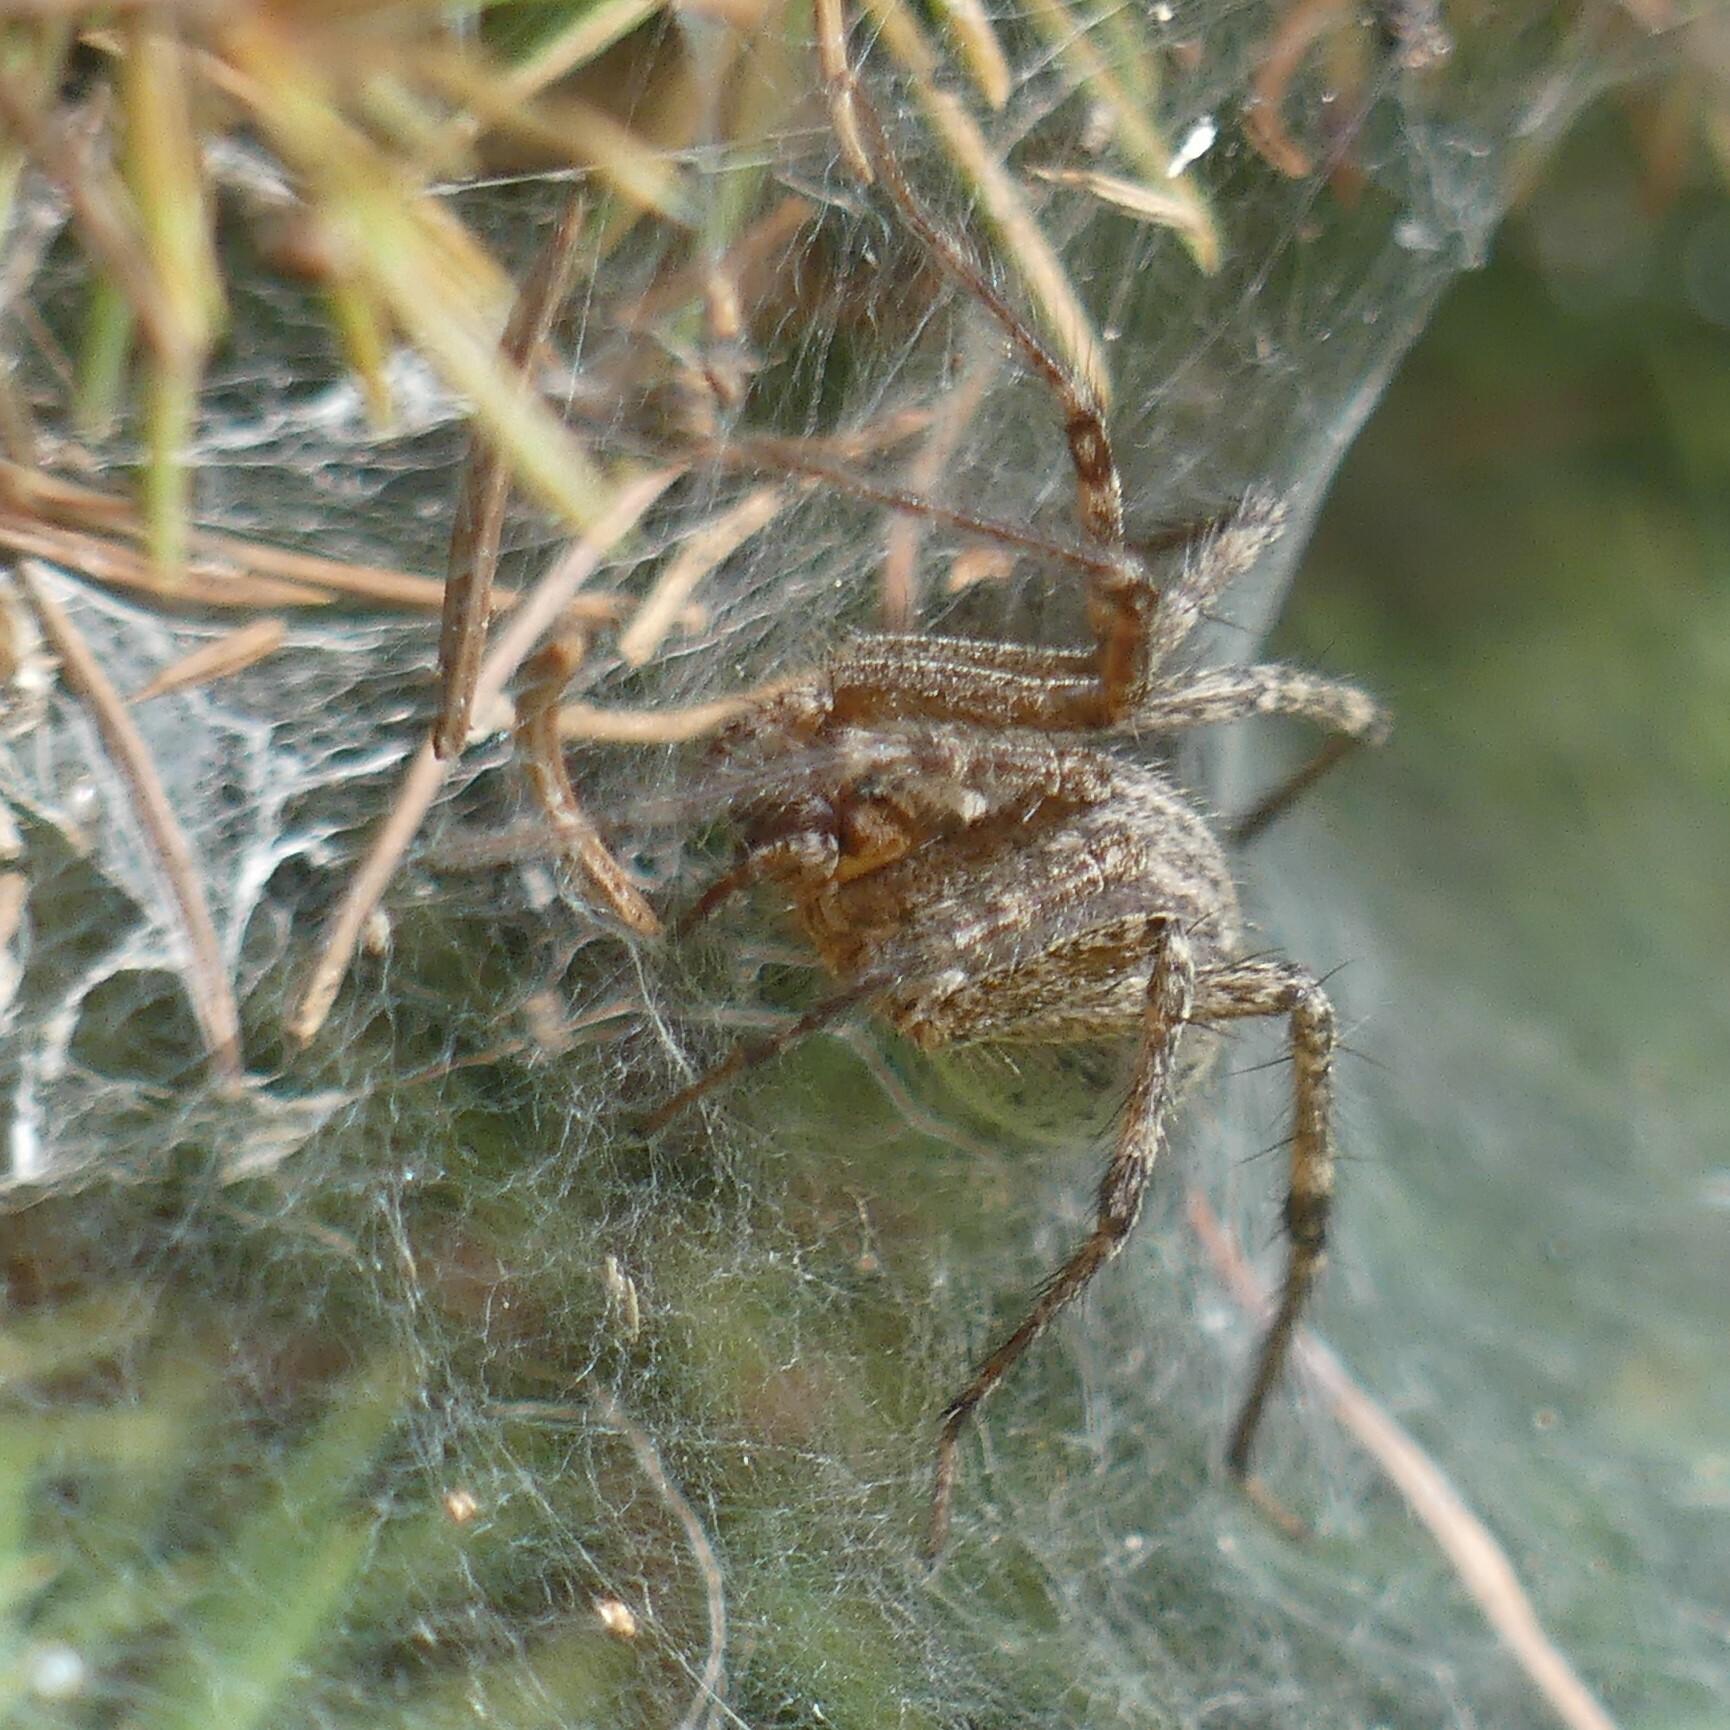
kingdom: Animalia
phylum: Arthropoda
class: Arachnida
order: Araneae
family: Agelenidae
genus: Agelenopsis
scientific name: Agelenopsis
